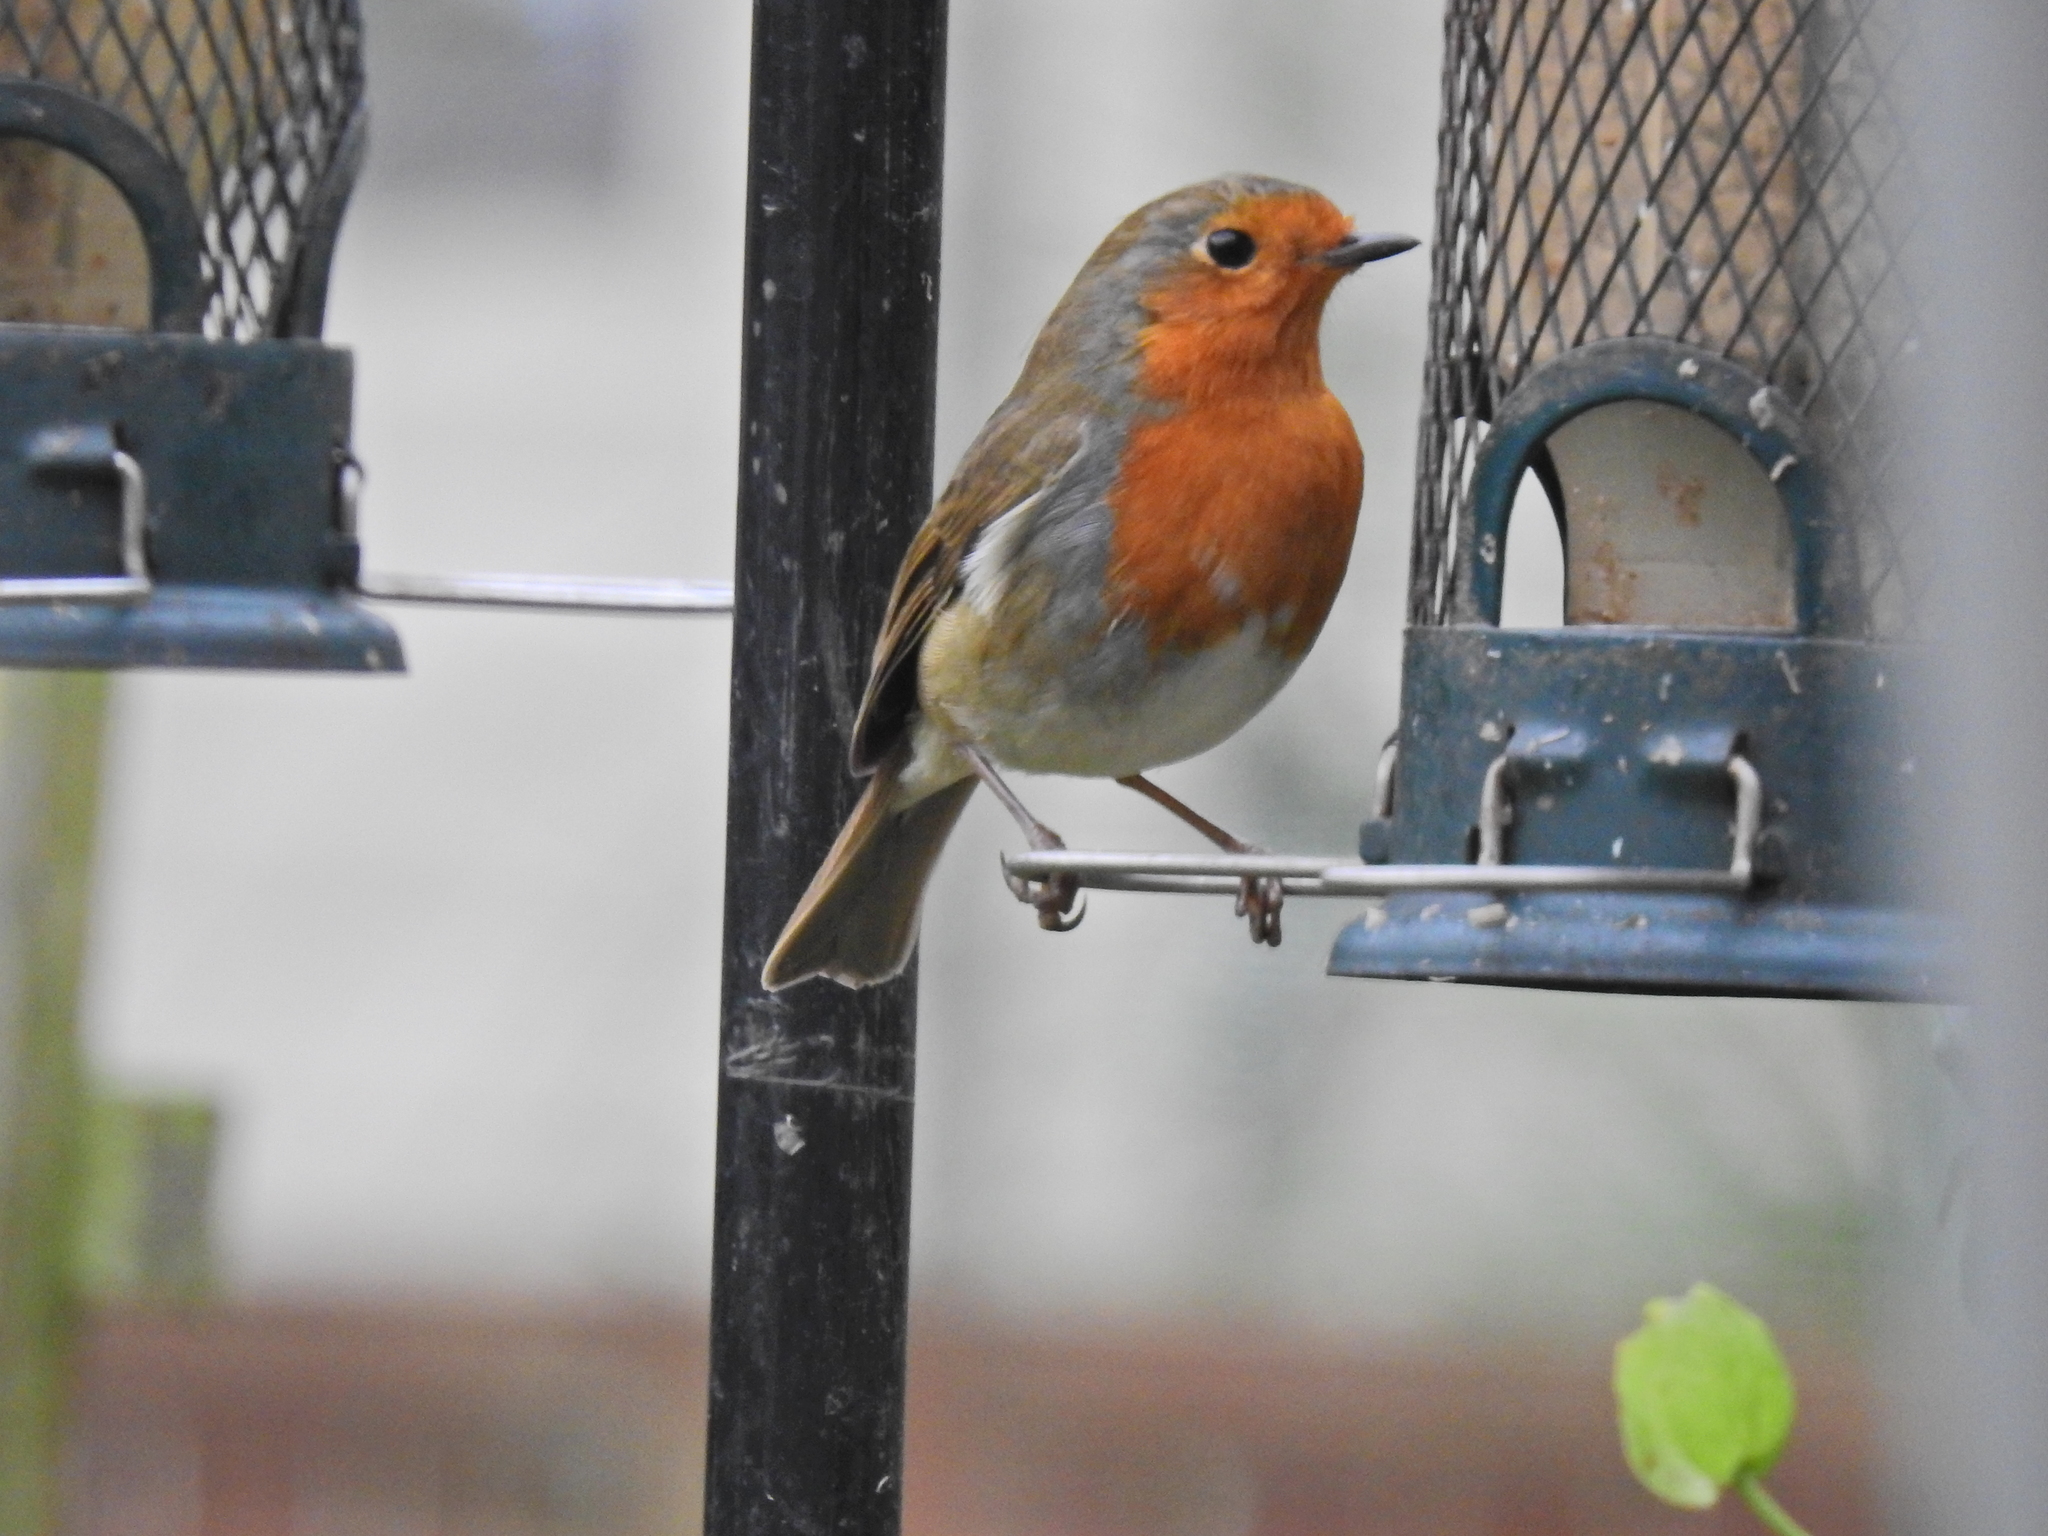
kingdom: Animalia
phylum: Chordata
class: Aves
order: Passeriformes
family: Muscicapidae
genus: Erithacus
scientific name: Erithacus rubecula
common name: European robin
